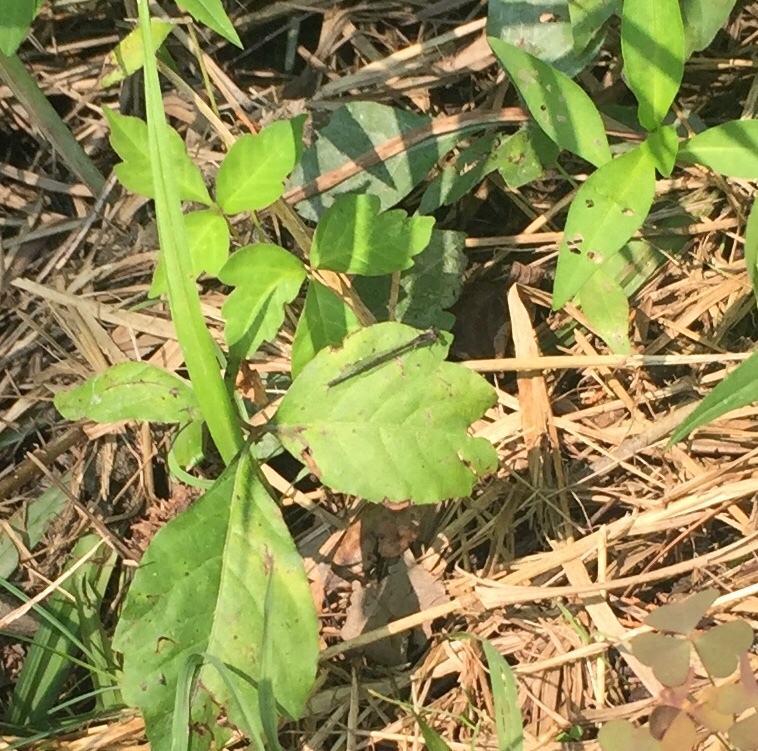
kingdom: Animalia
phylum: Arthropoda
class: Insecta
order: Odonata
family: Coenagrionidae
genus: Ischnura
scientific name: Ischnura posita
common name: Fragile forktail
